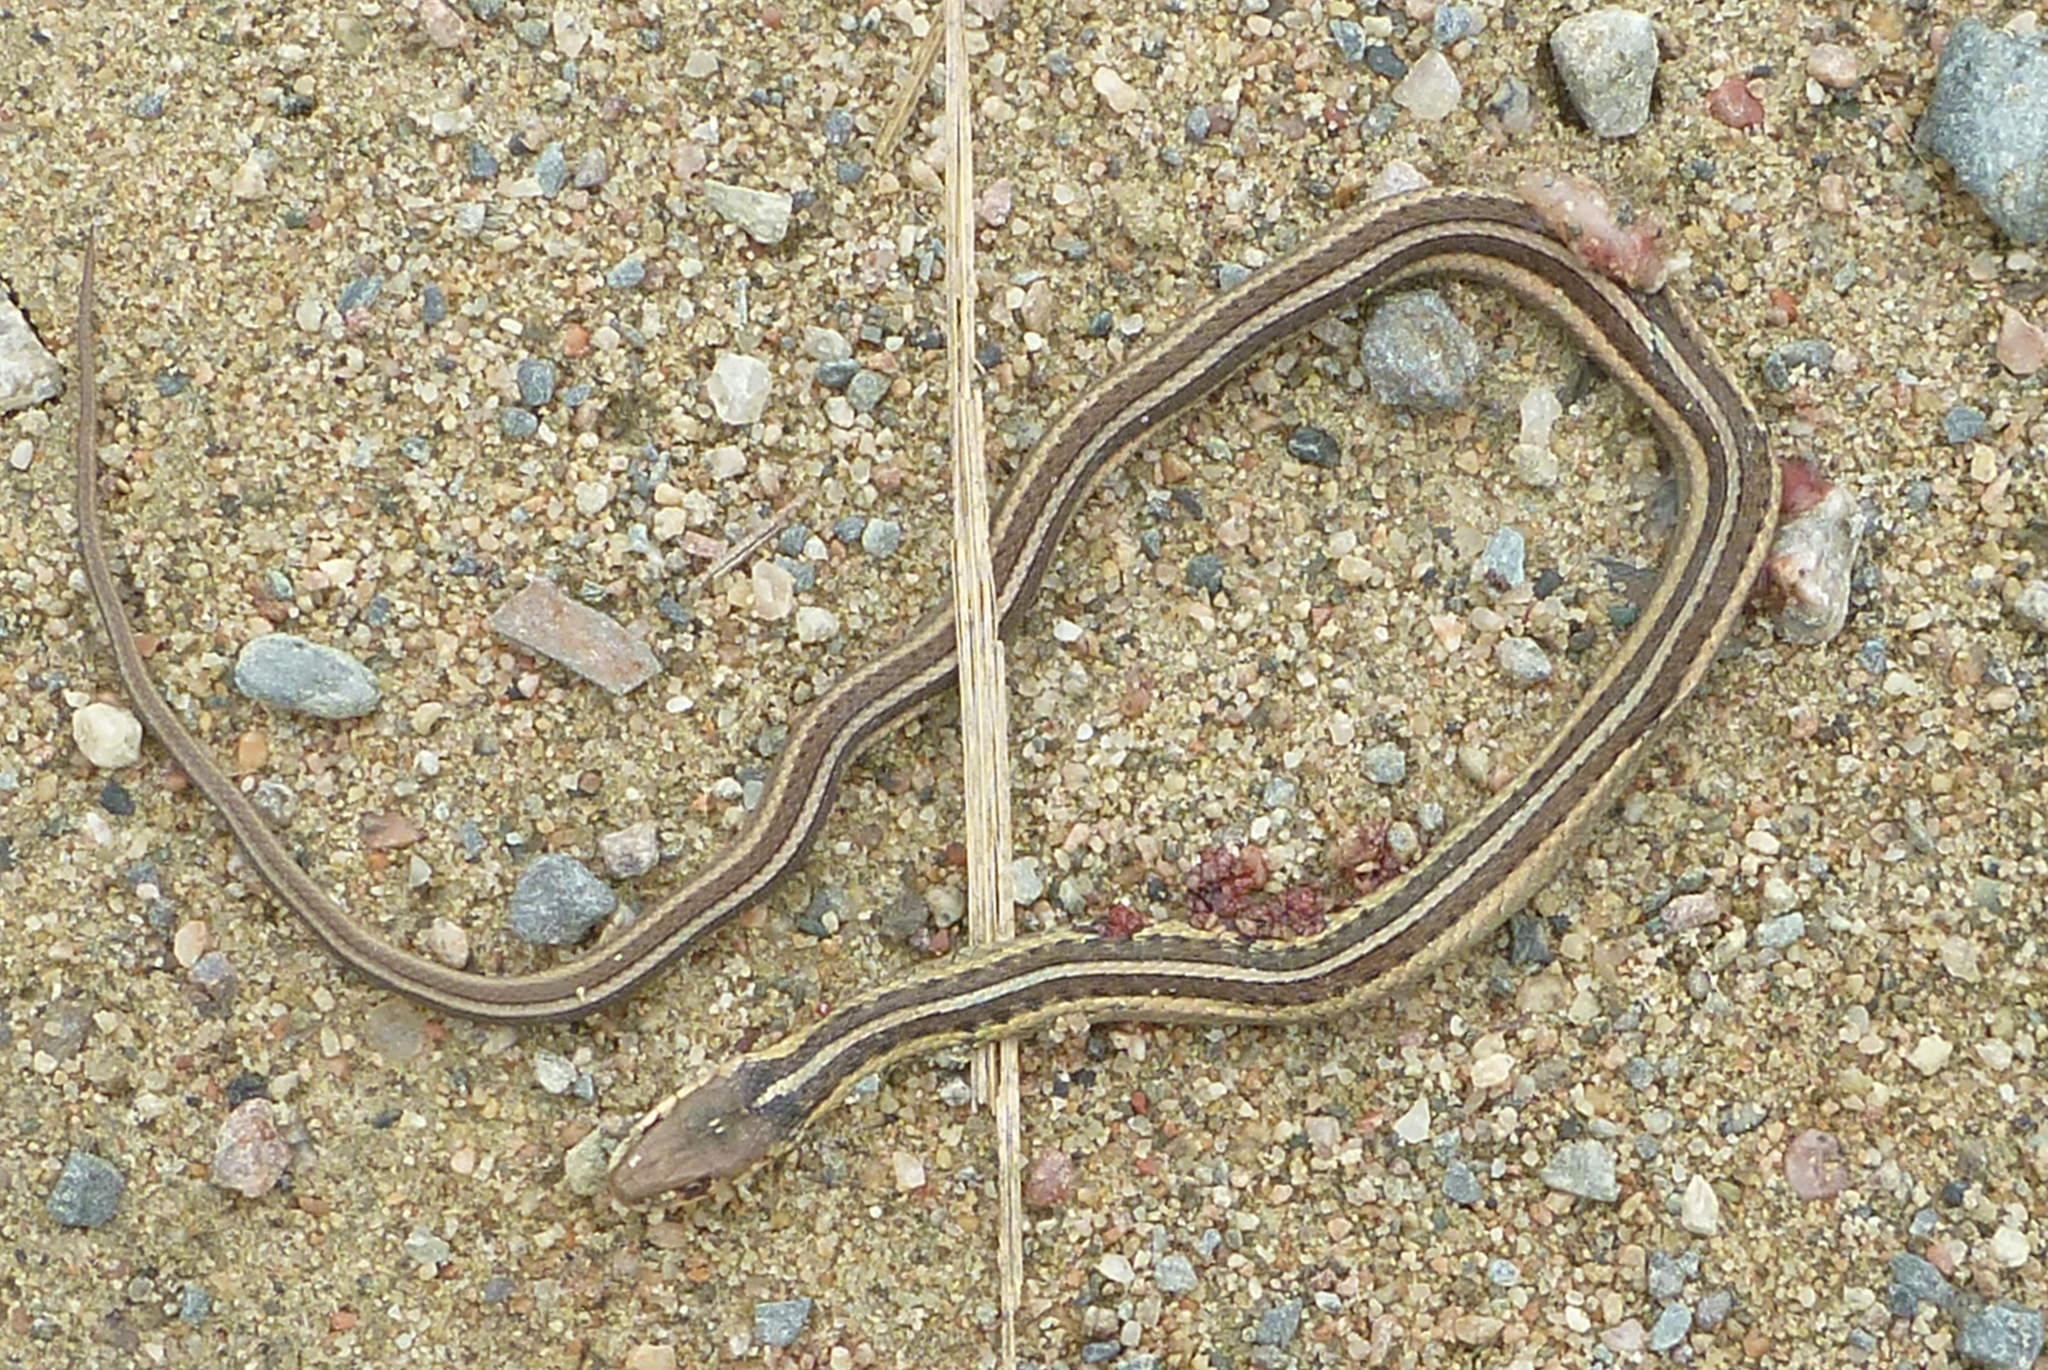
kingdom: Animalia
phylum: Chordata
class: Squamata
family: Colubridae
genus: Thamnophis
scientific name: Thamnophis sirtalis
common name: Common garter snake
